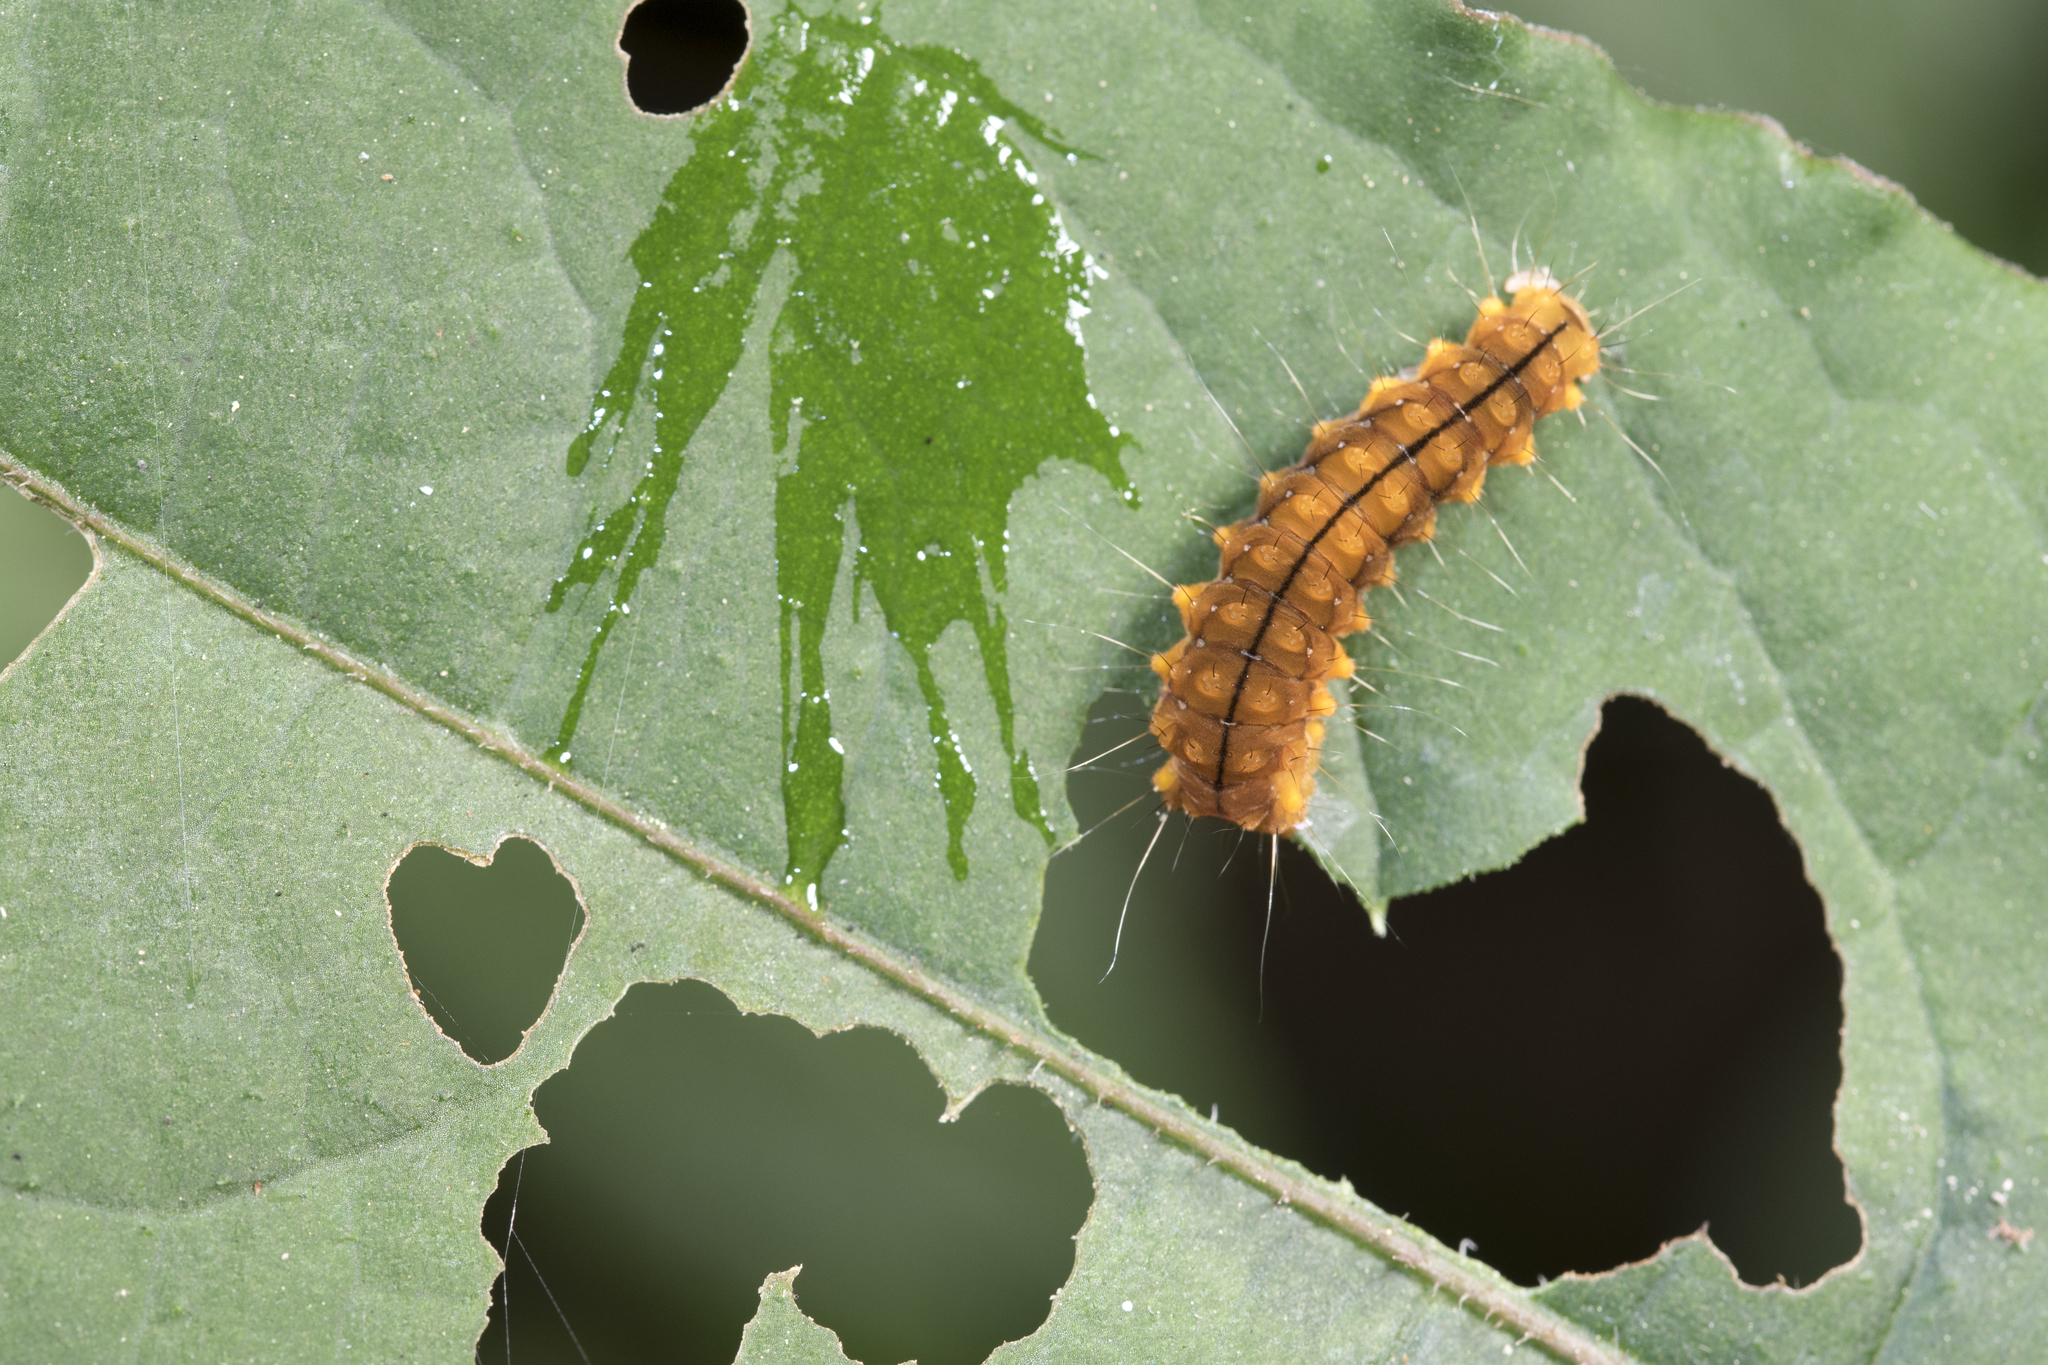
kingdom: Animalia
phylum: Arthropoda
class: Insecta
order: Lepidoptera
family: Zygaenidae
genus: Soritia
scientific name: Soritia strandi
